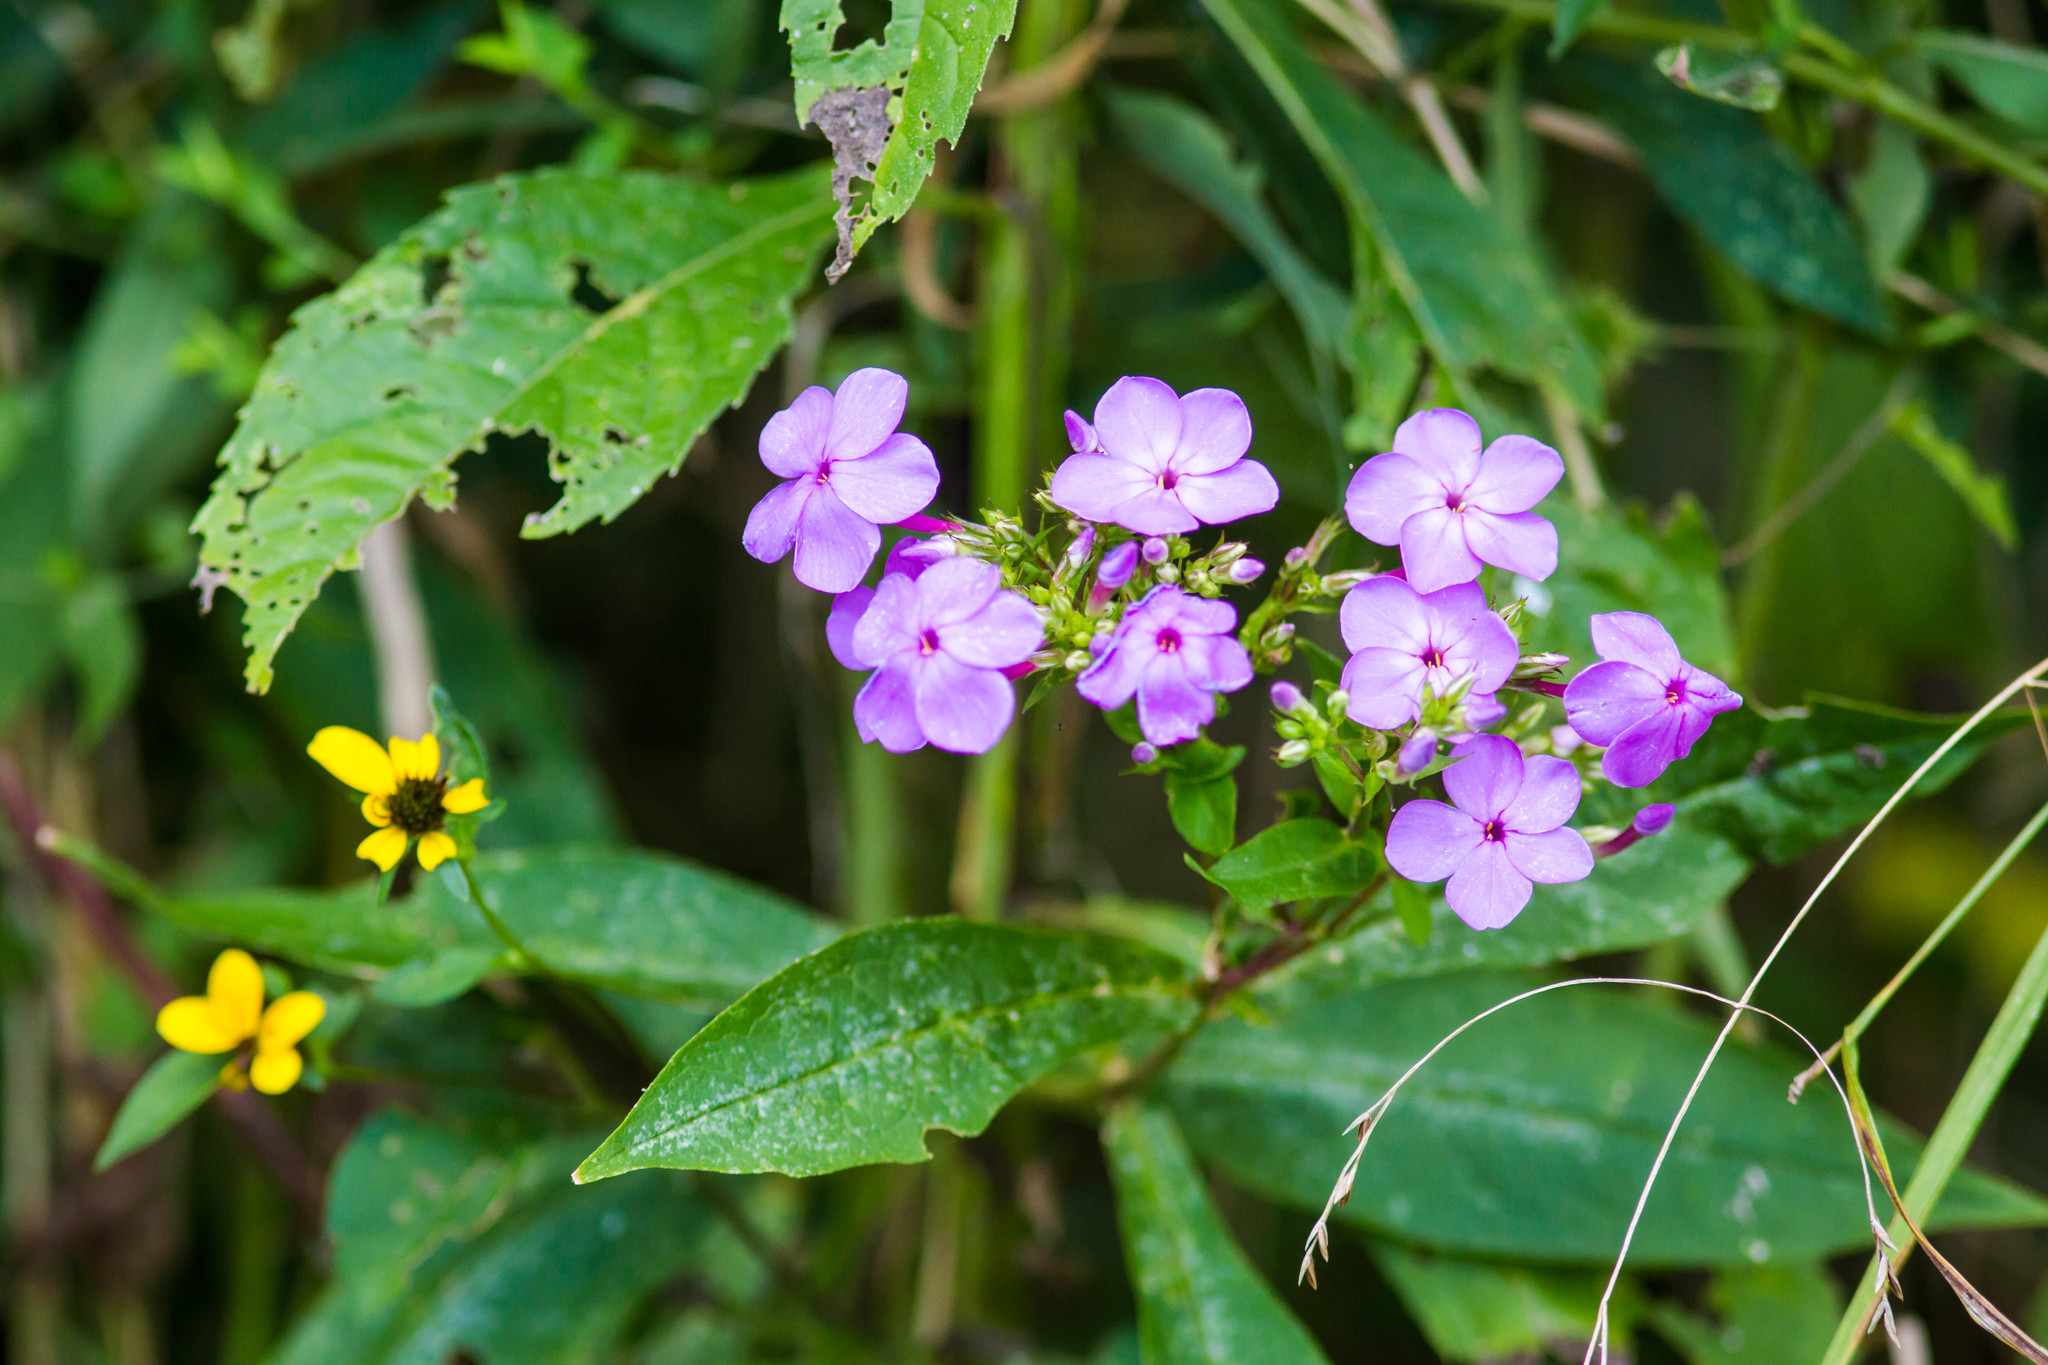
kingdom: Plantae
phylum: Tracheophyta
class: Magnoliopsida
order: Ericales
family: Polemoniaceae
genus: Phlox
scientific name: Phlox paniculata
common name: Fall phlox
